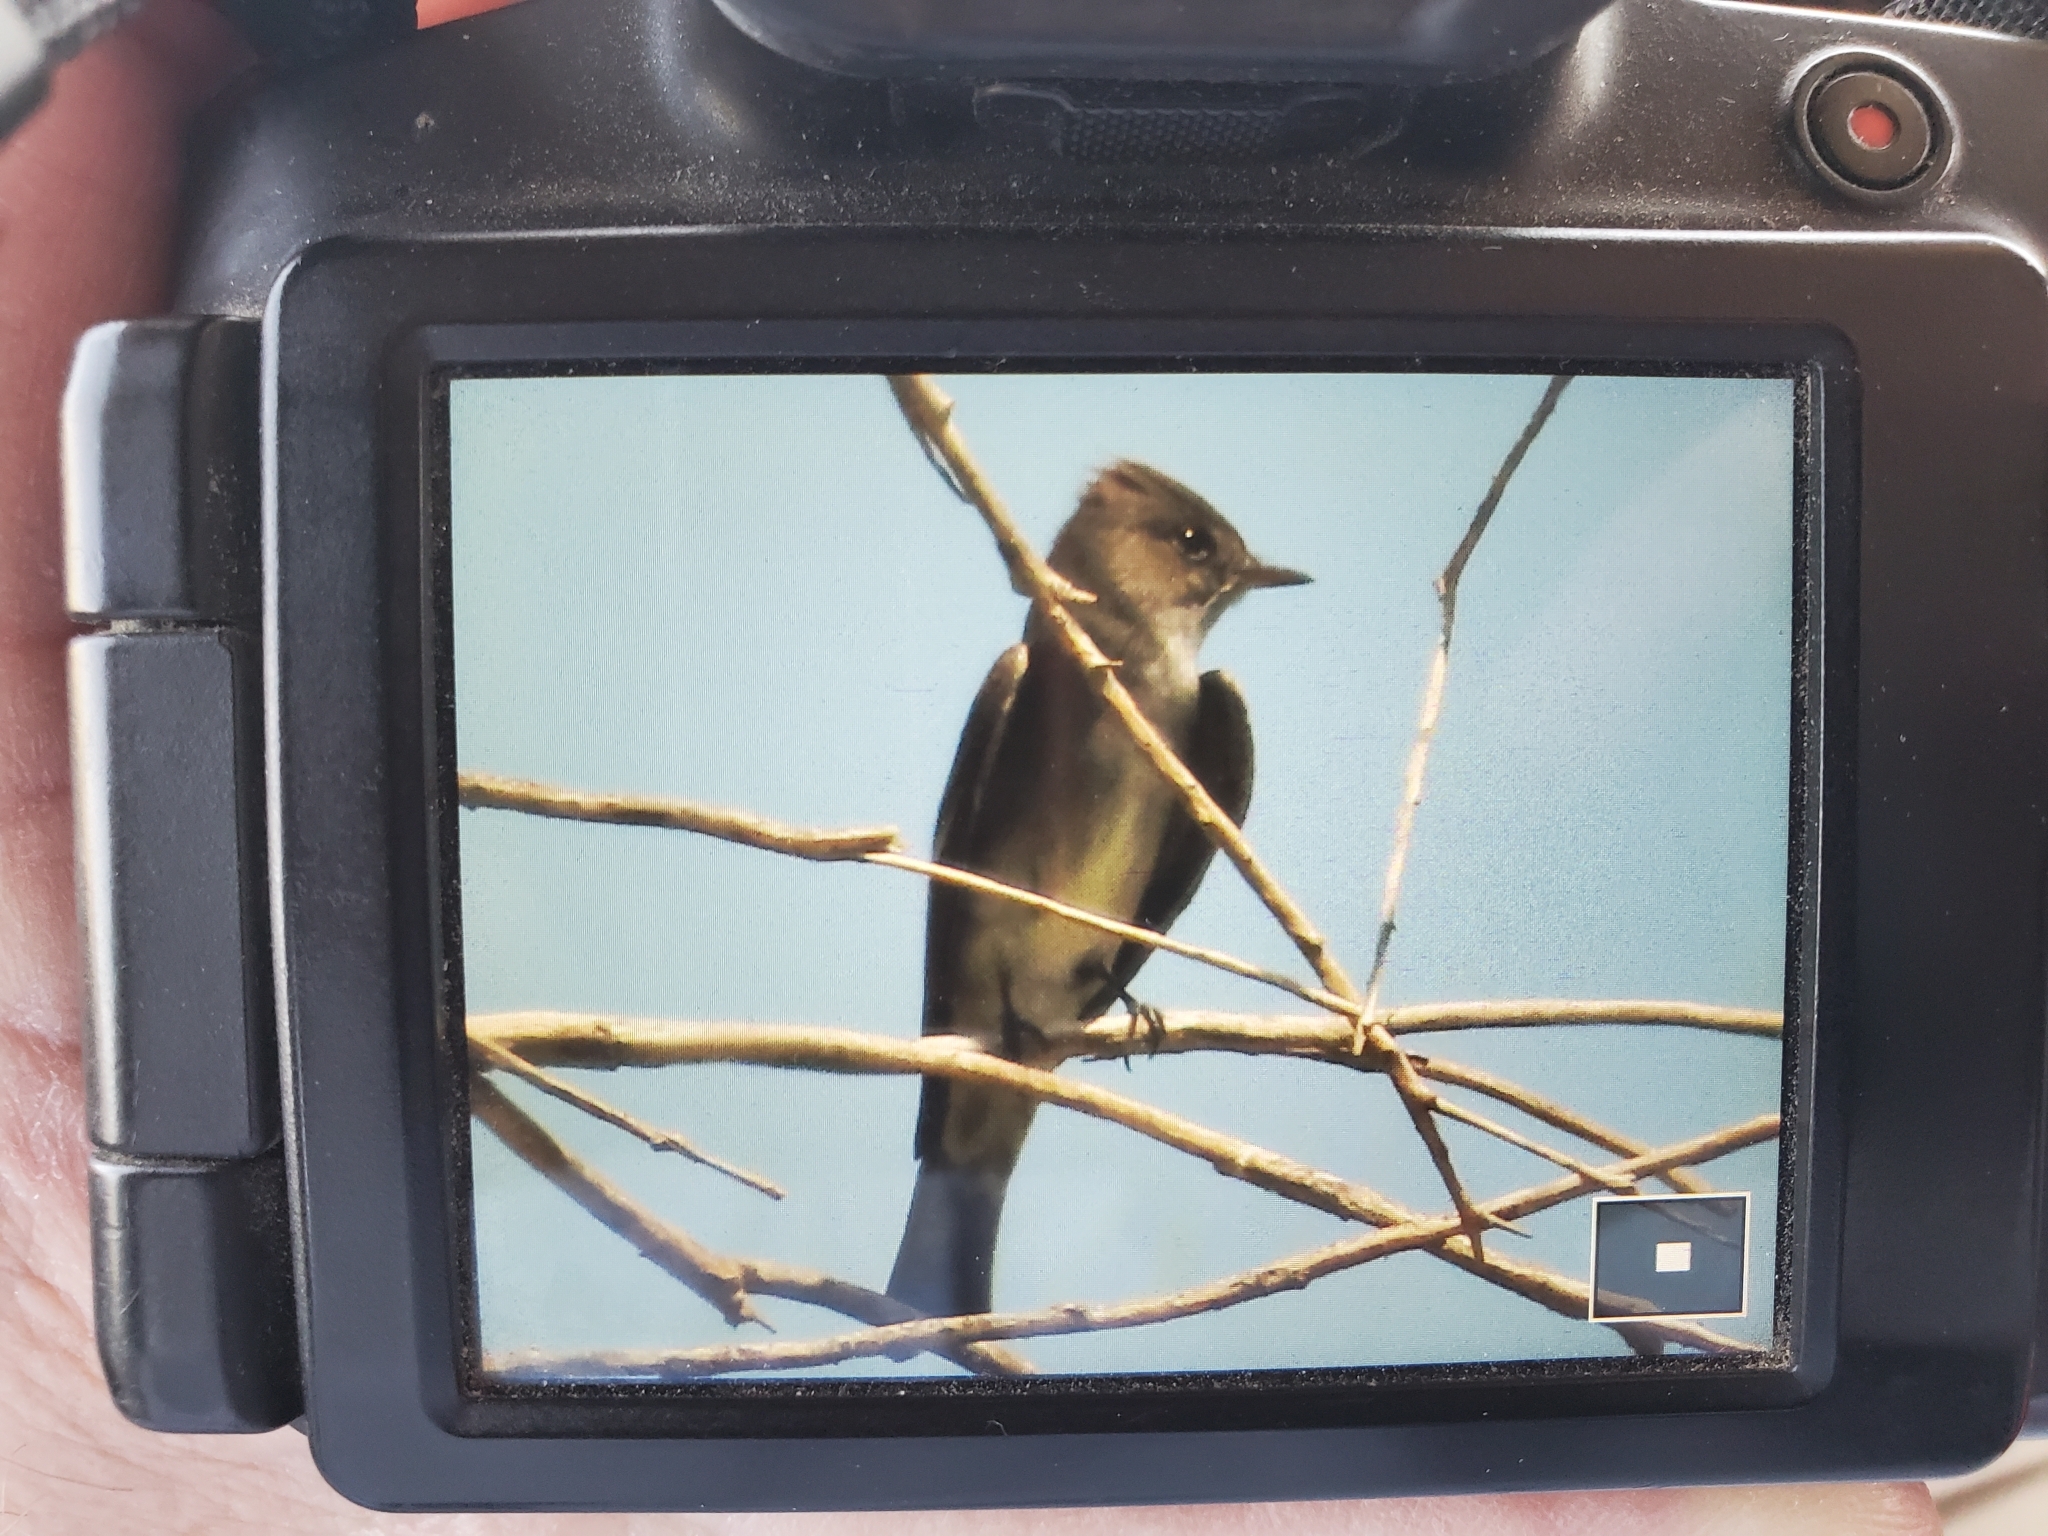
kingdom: Animalia
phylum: Chordata
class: Aves
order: Passeriformes
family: Tyrannidae
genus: Contopus
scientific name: Contopus sordidulus
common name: Western wood-pewee
